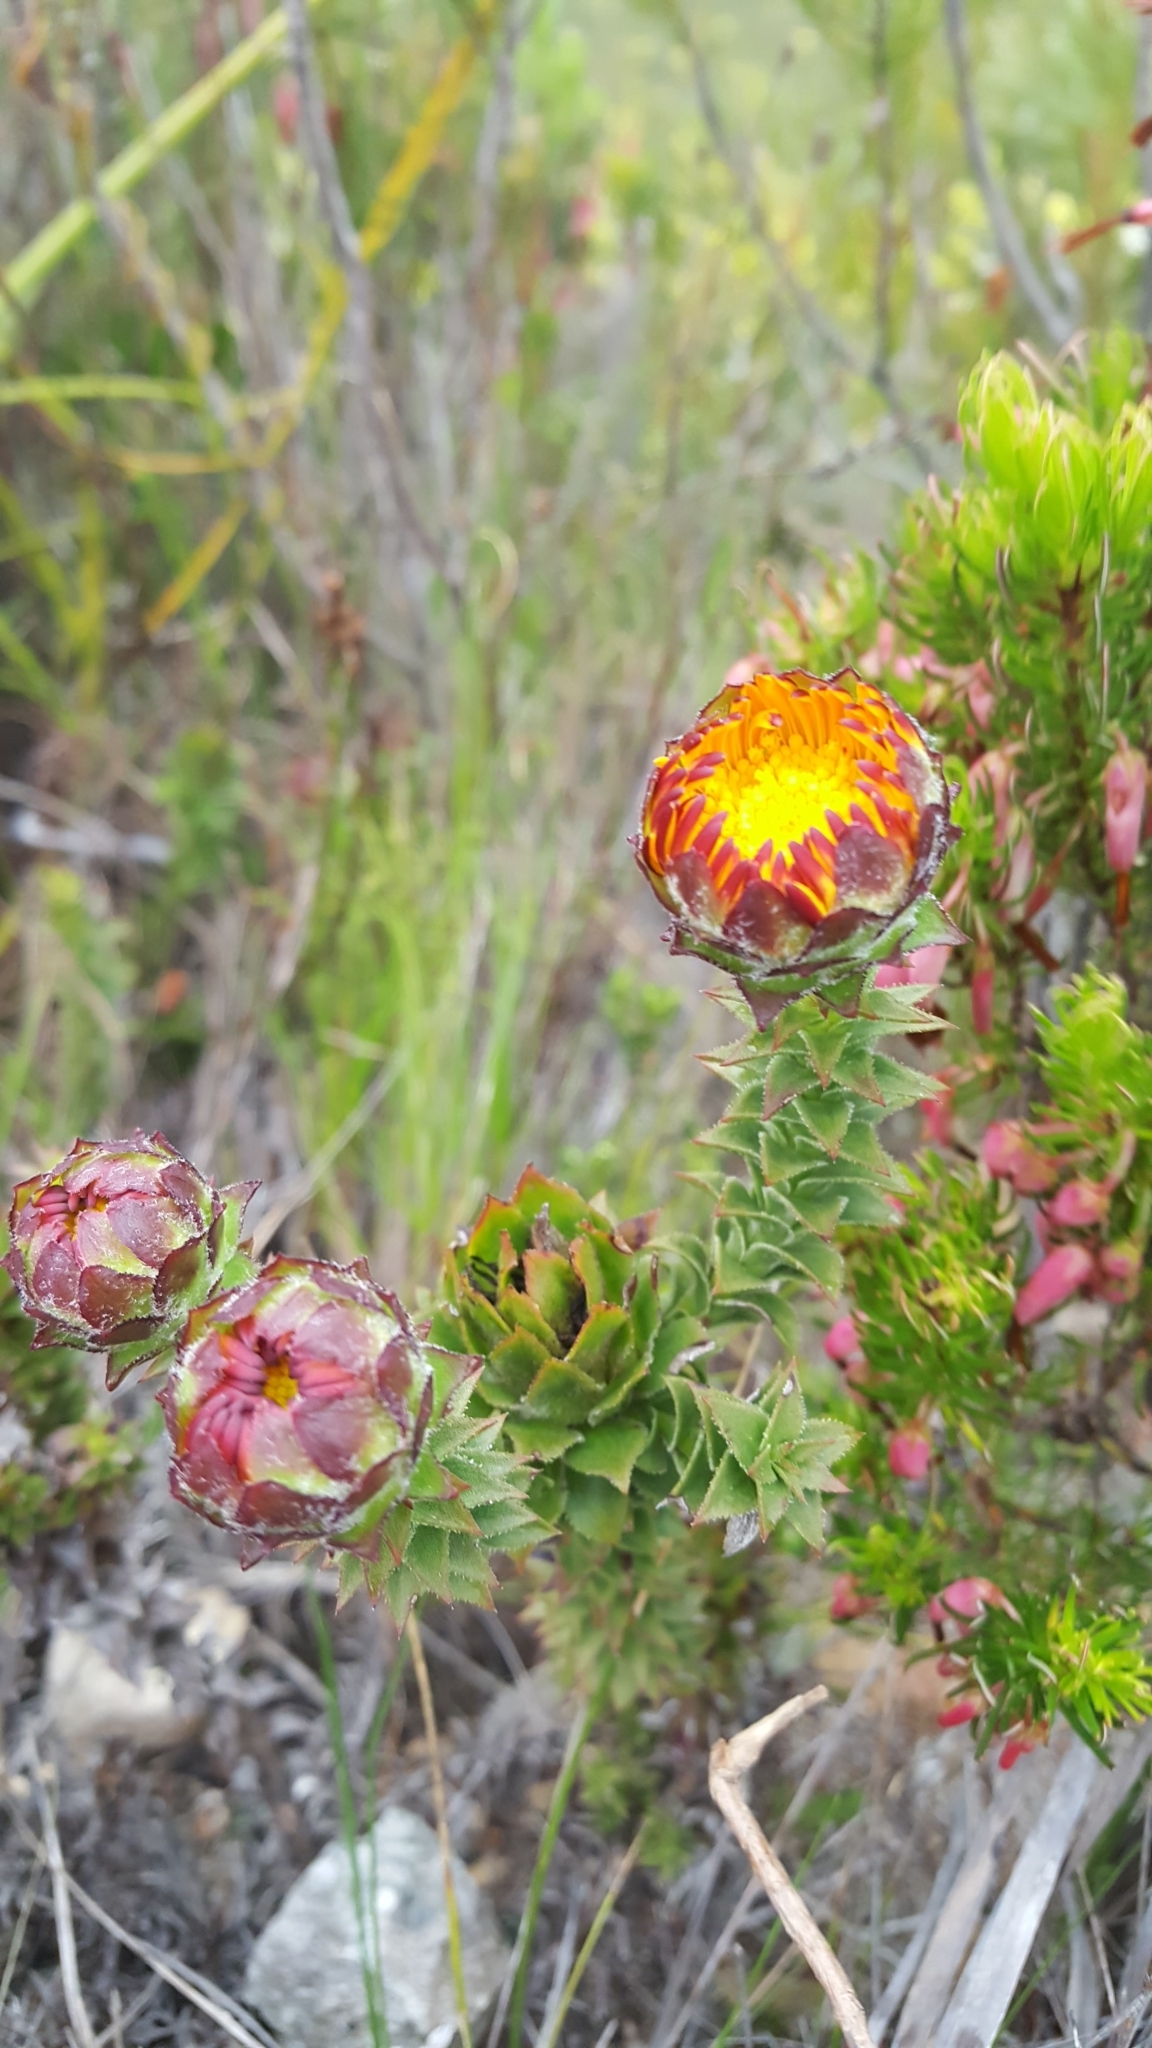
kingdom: Plantae
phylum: Tracheophyta
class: Magnoliopsida
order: Asterales
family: Asteraceae
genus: Oedera
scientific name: Oedera imbricata
